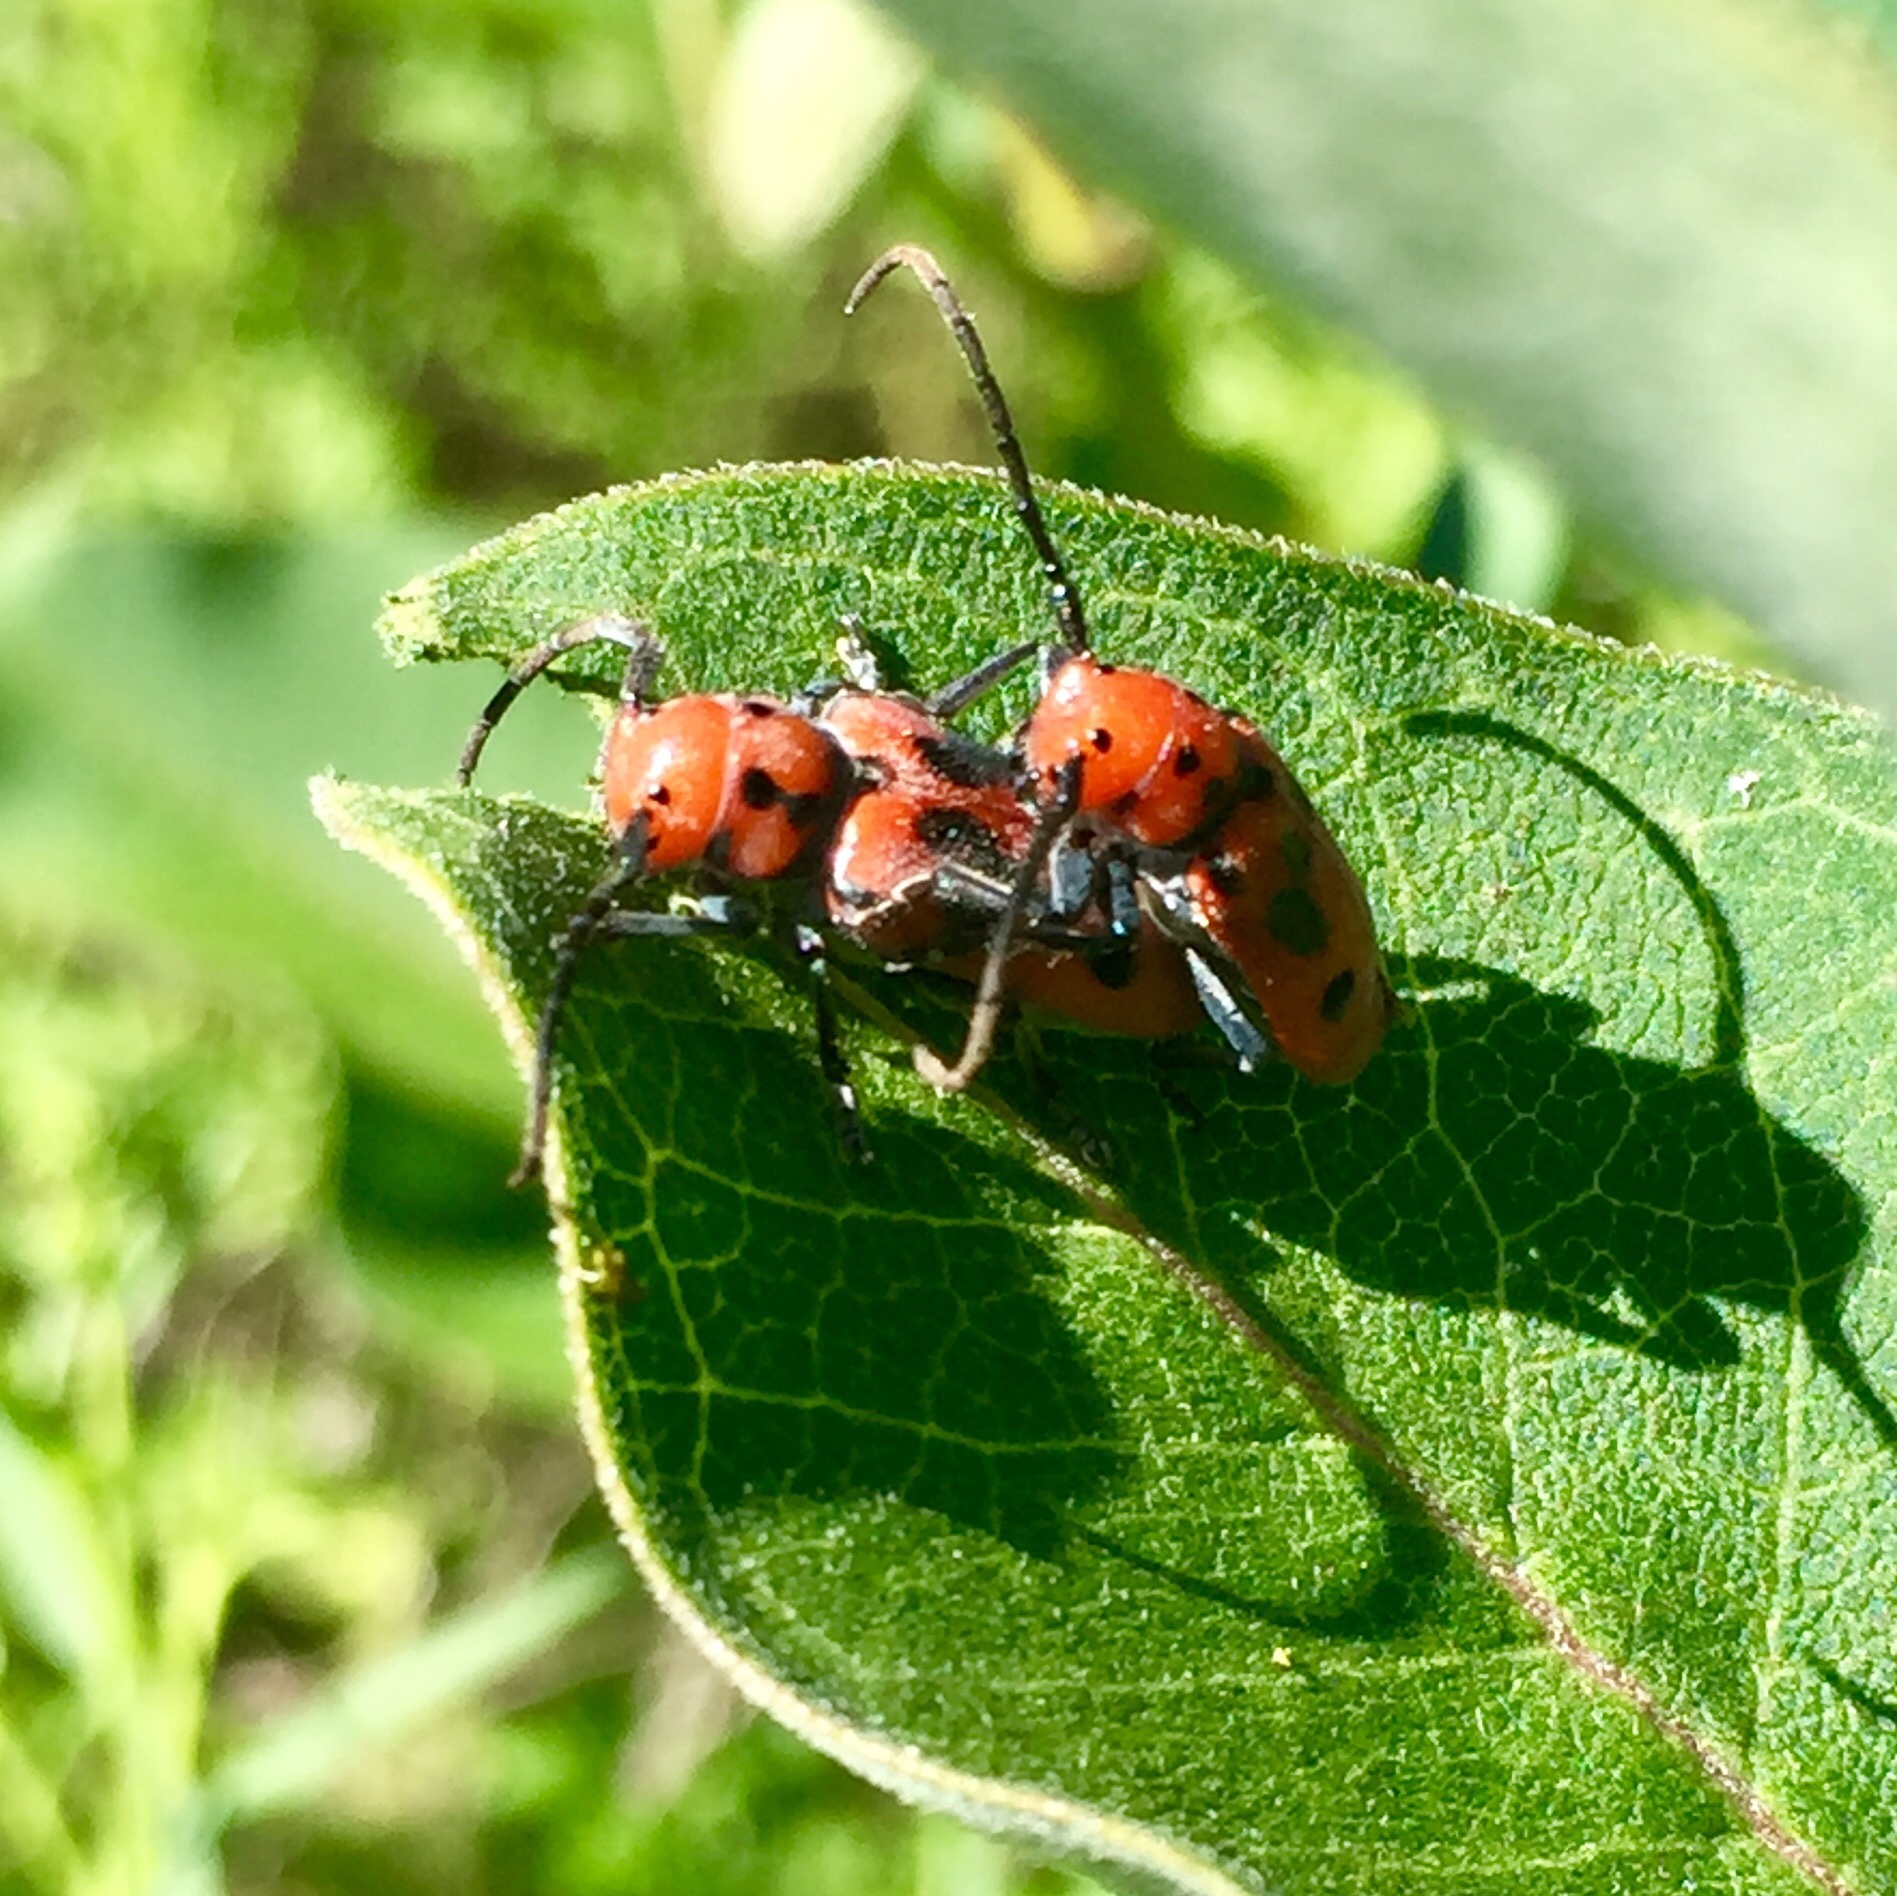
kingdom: Animalia
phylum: Arthropoda
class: Insecta
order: Coleoptera
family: Cerambycidae
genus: Tetraopes
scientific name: Tetraopes tetrophthalmus
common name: Red milkweed beetle
